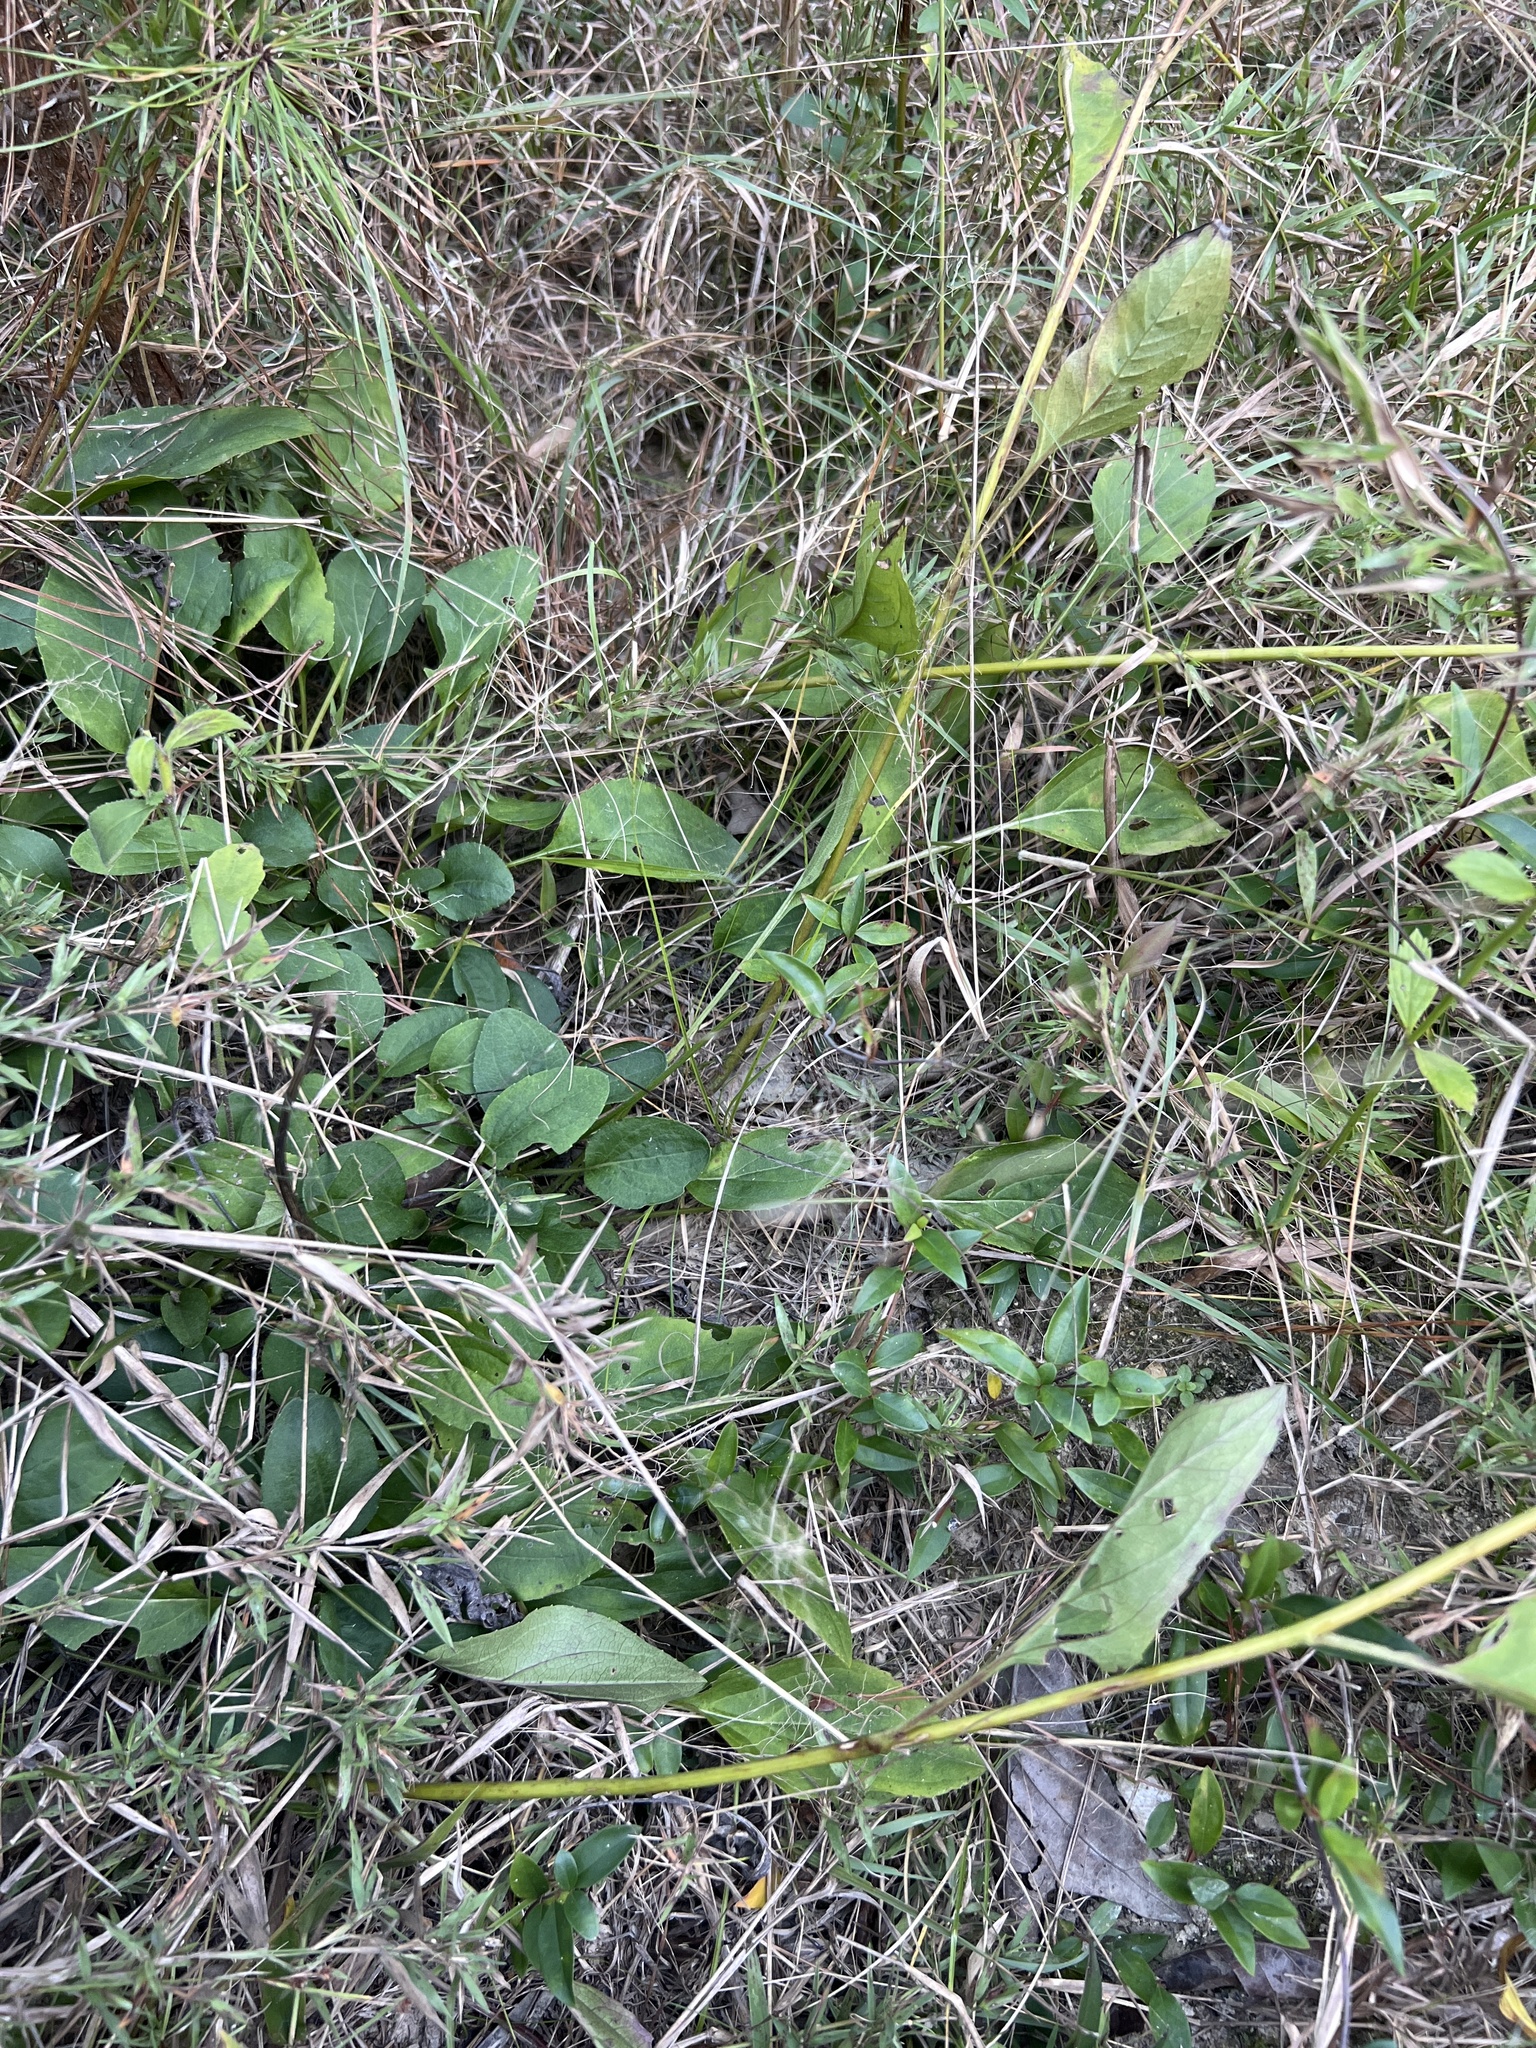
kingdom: Plantae
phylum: Tracheophyta
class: Magnoliopsida
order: Asterales
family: Asteraceae
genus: Rudbeckia
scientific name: Rudbeckia heliopsidis
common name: Little river black-eyed-susan
